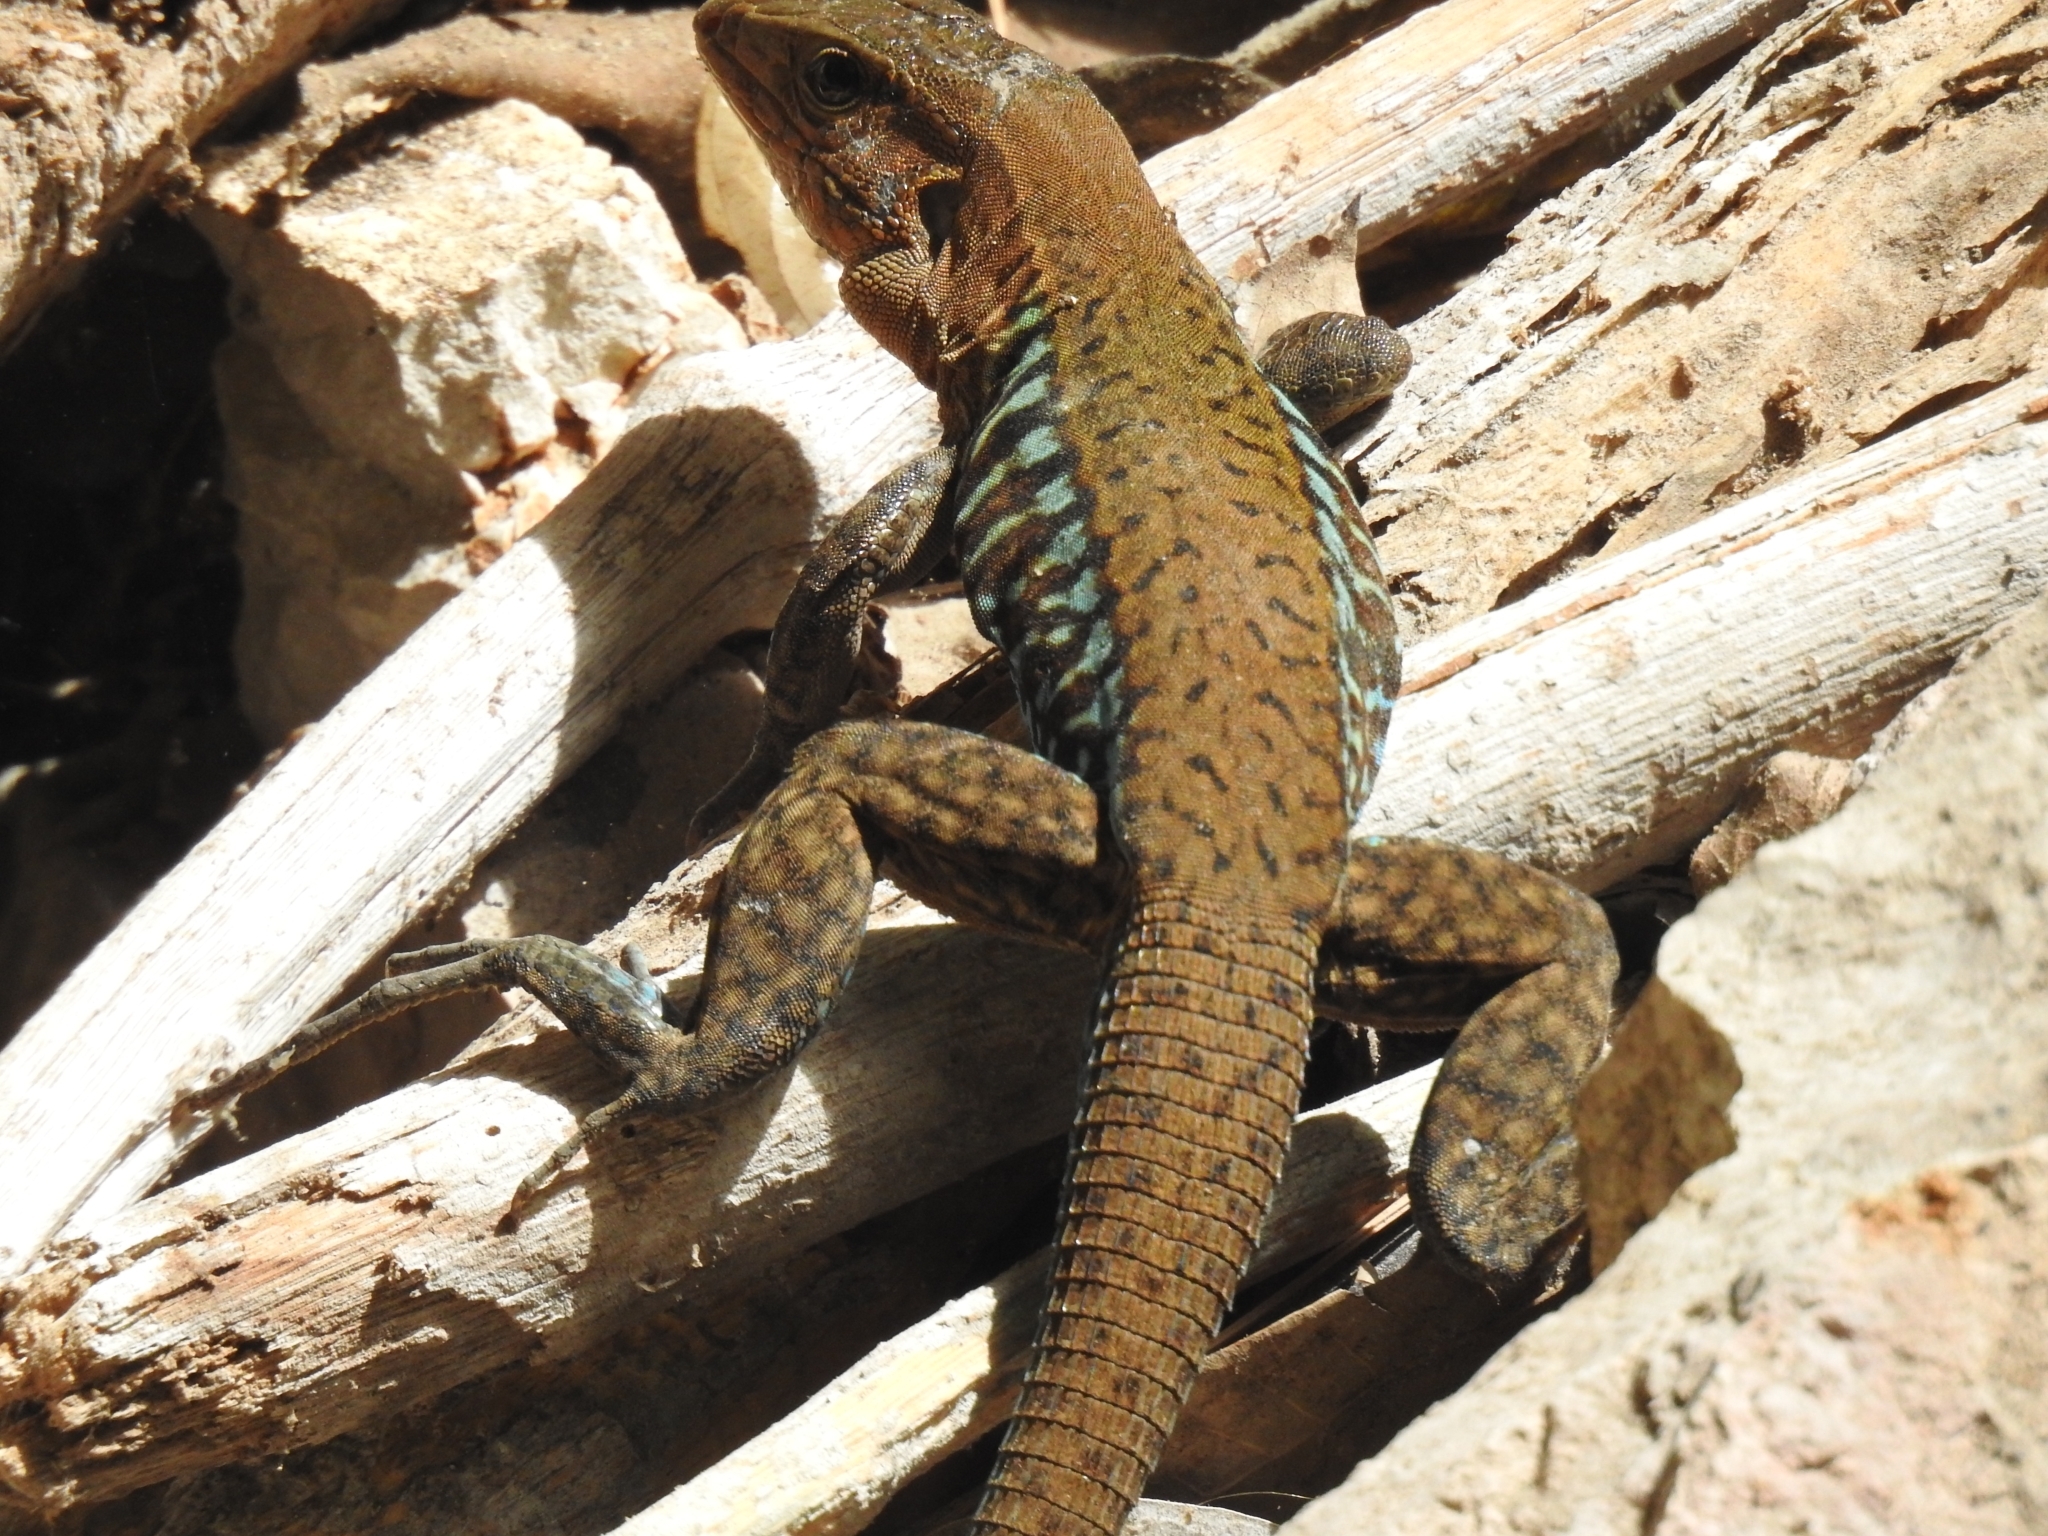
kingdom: Animalia
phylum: Chordata
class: Squamata
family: Teiidae
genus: Holcosus
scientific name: Holcosus undulatus
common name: Rainbow ameiva
